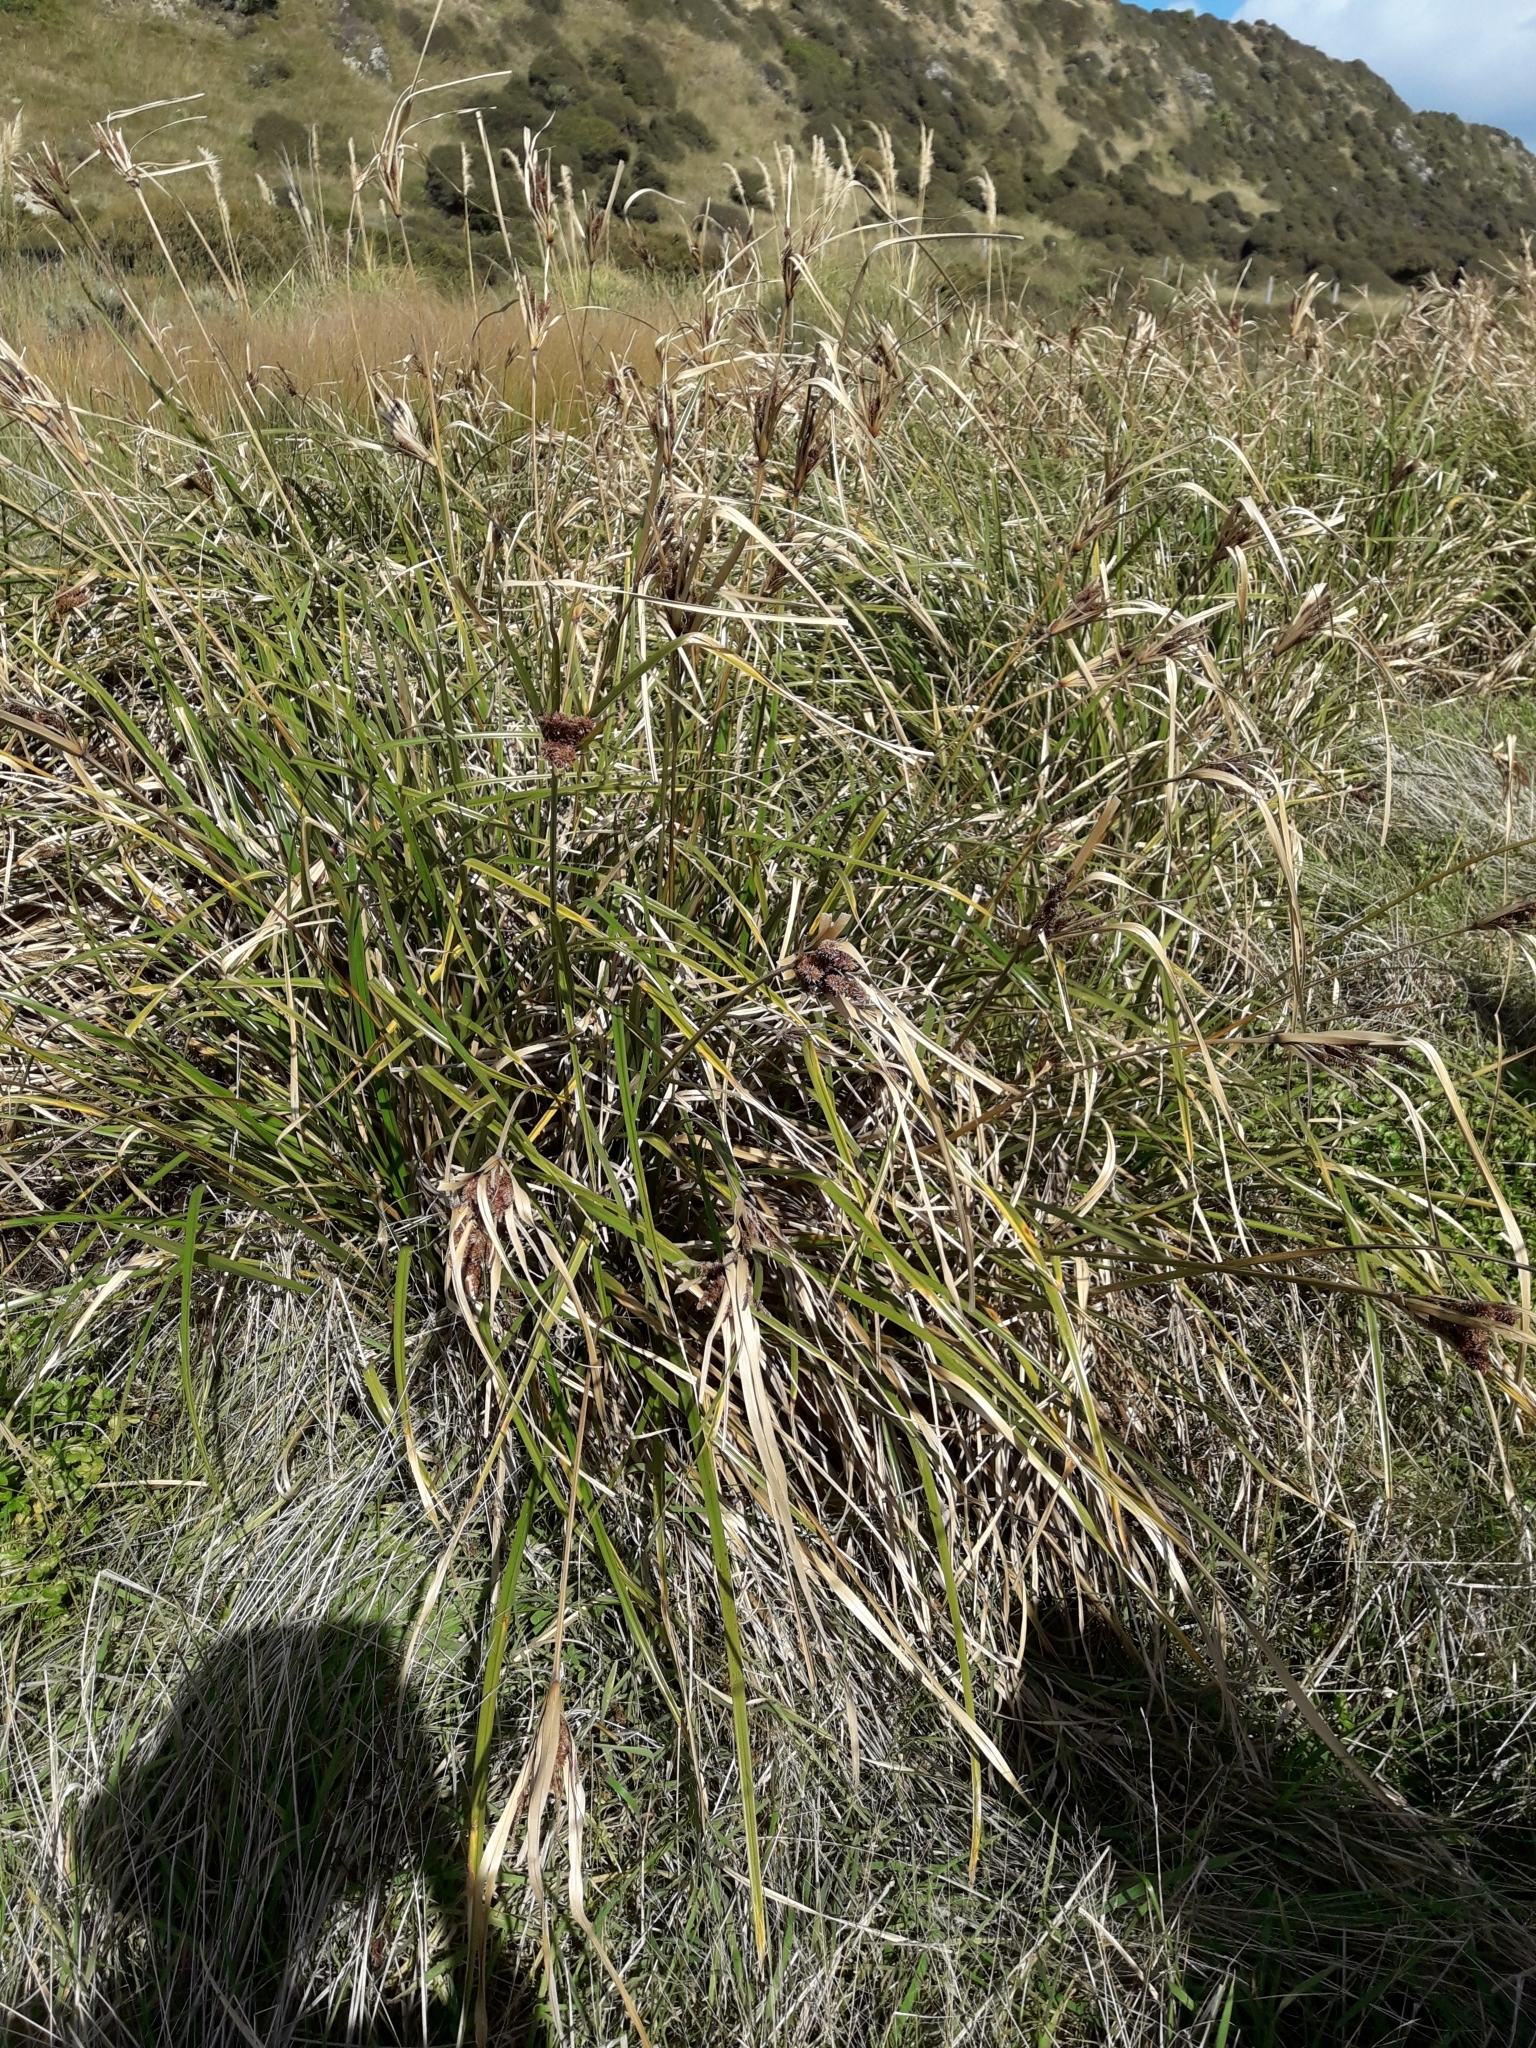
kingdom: Plantae
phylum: Tracheophyta
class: Liliopsida
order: Poales
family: Cyperaceae
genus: Cyperus
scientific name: Cyperus ustulatus
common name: Giant umbrella-sedge
